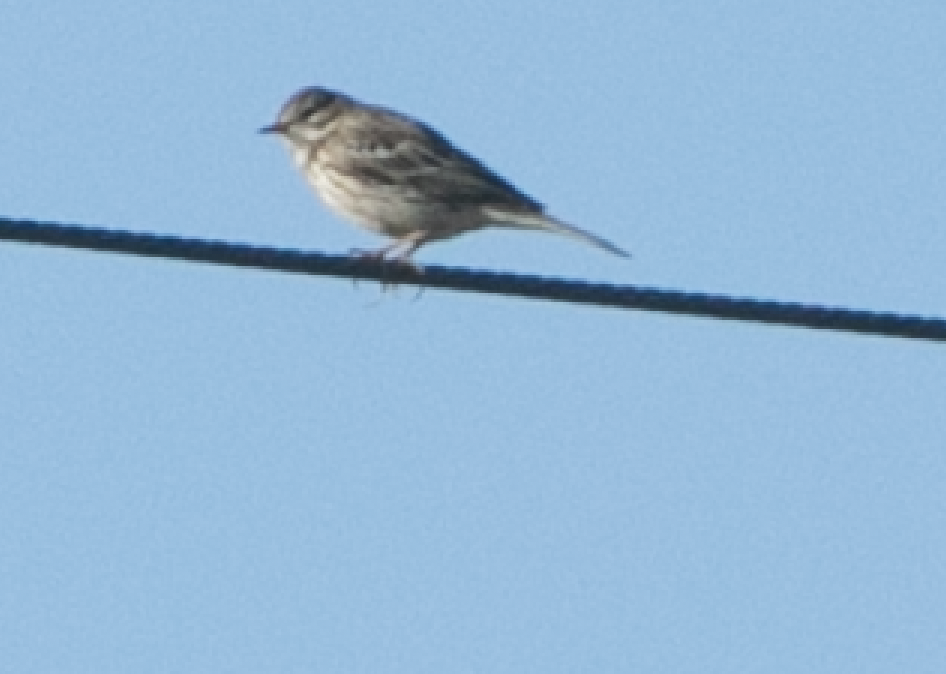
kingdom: Animalia
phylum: Chordata
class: Aves
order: Passeriformes
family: Motacillidae
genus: Anthus
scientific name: Anthus pratensis
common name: Meadow pipit
